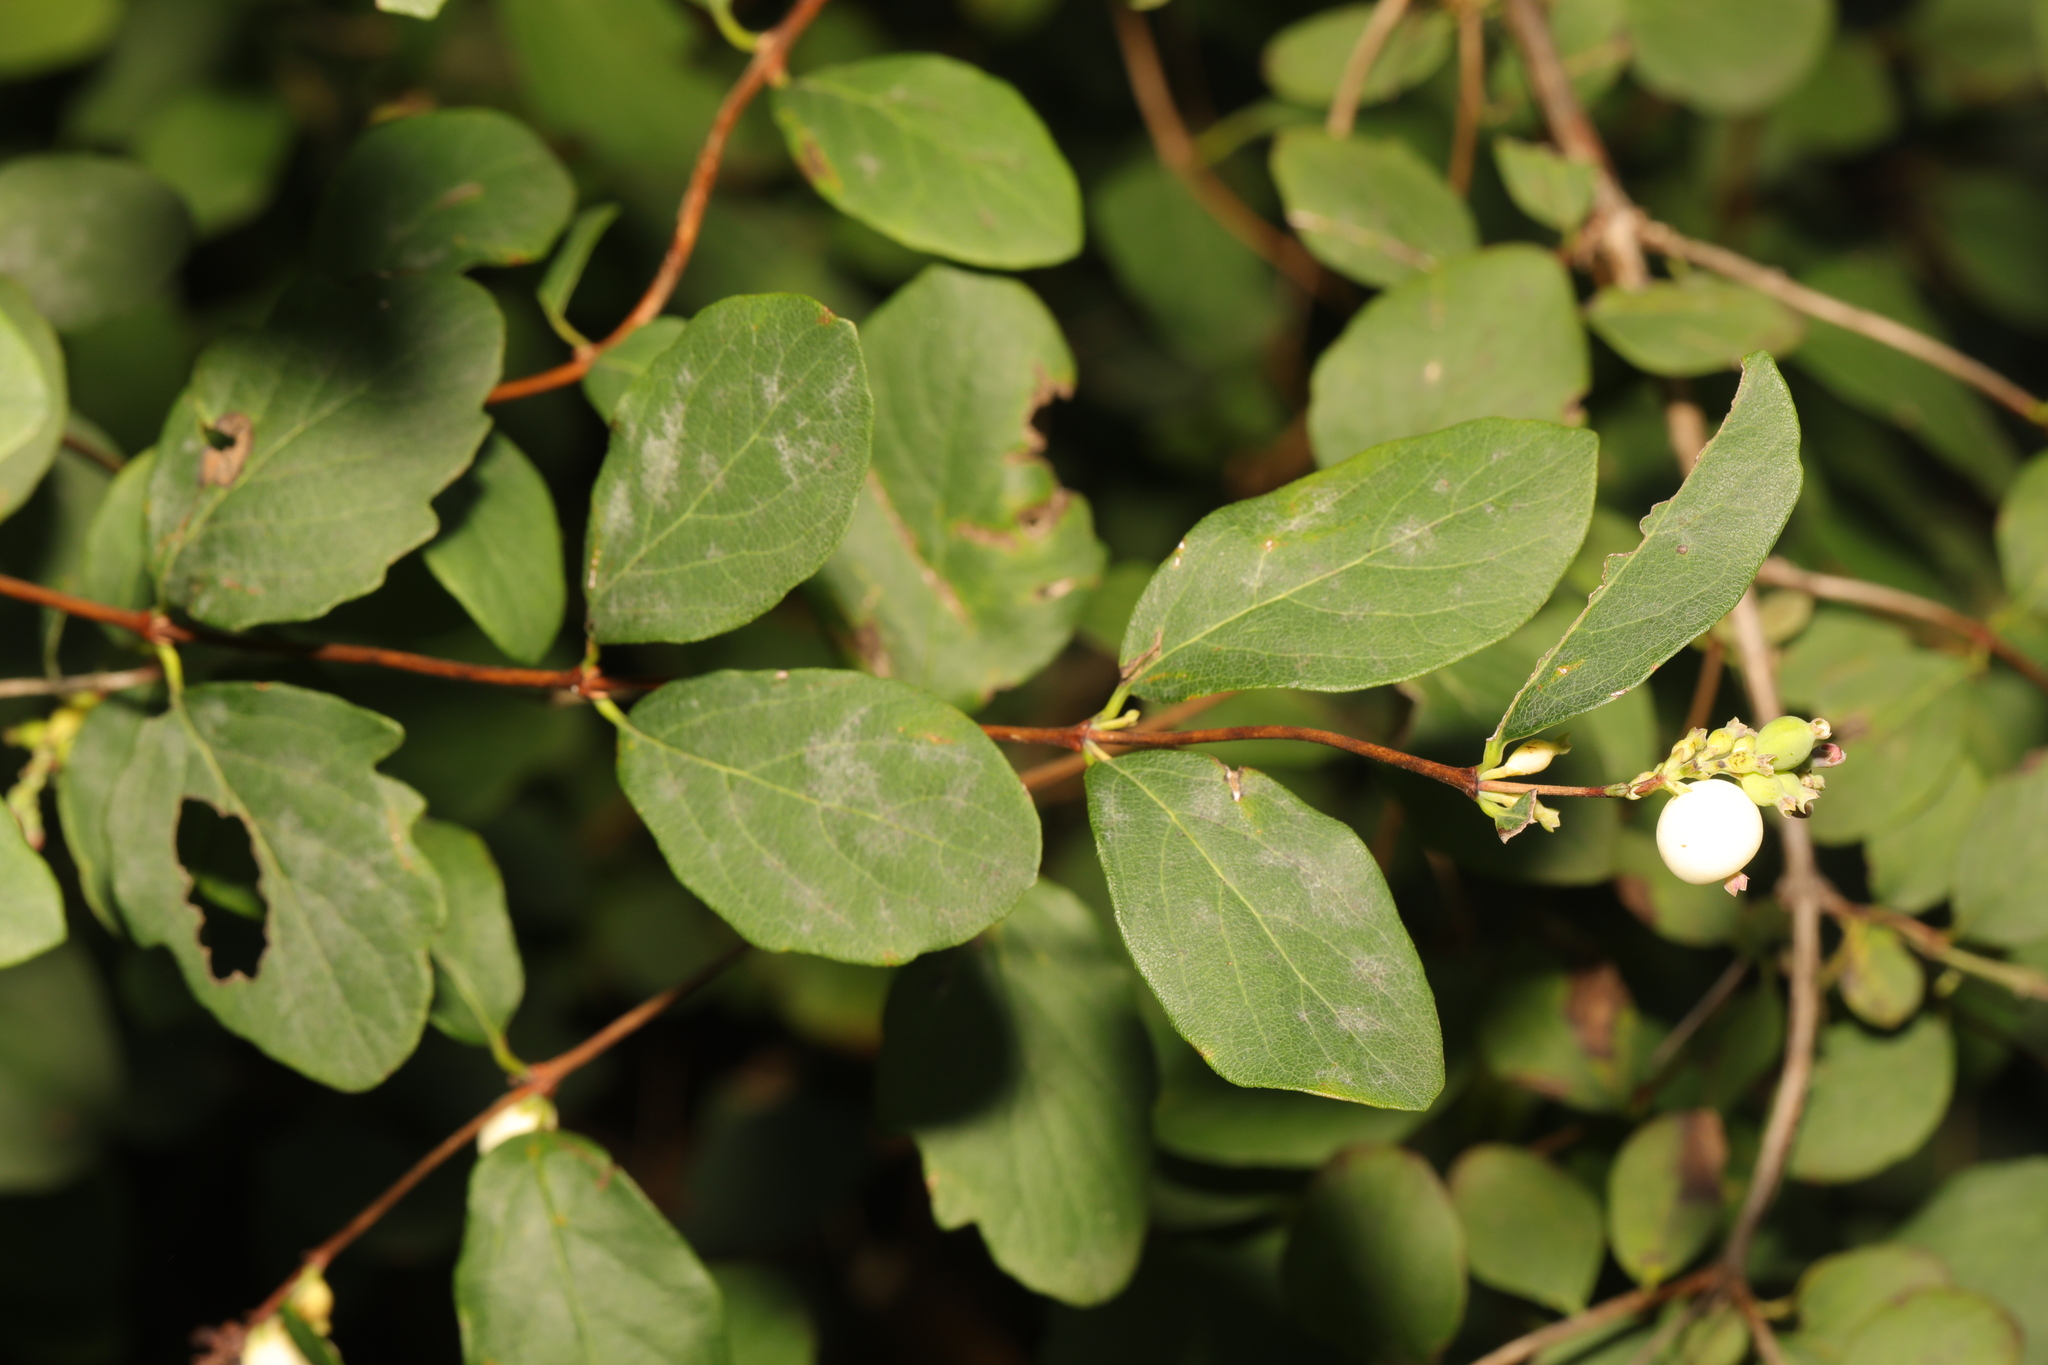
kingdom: Plantae
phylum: Tracheophyta
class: Magnoliopsida
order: Dipsacales
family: Caprifoliaceae
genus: Symphoricarpos
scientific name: Symphoricarpos albus
